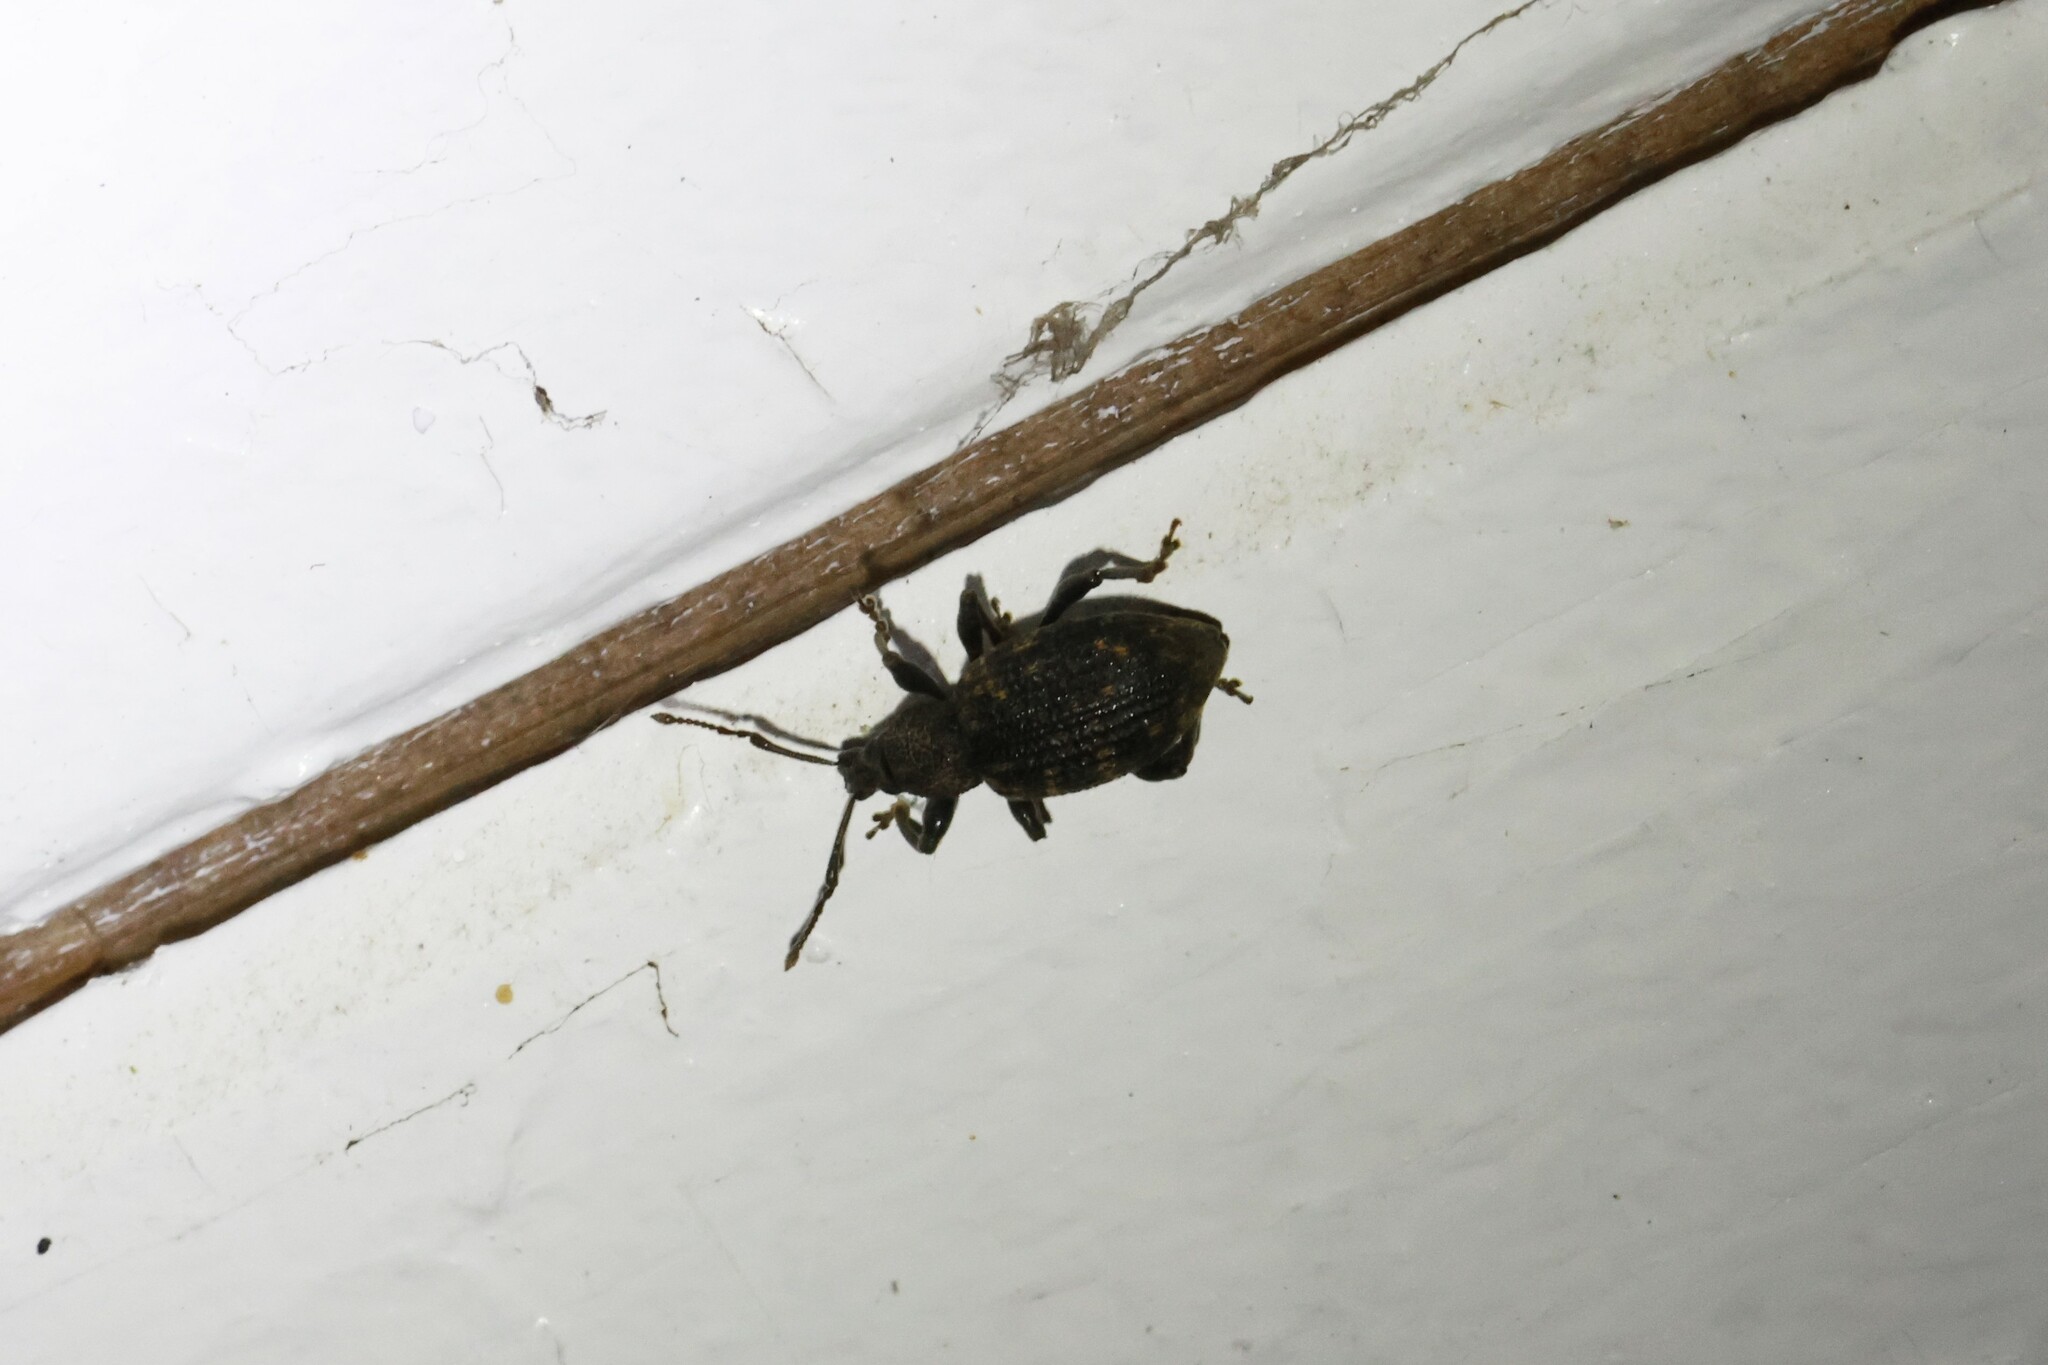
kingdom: Animalia
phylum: Arthropoda
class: Insecta
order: Coleoptera
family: Curculionidae
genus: Otiorhynchus
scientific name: Otiorhynchus sulcatus
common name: Black vine weevil
